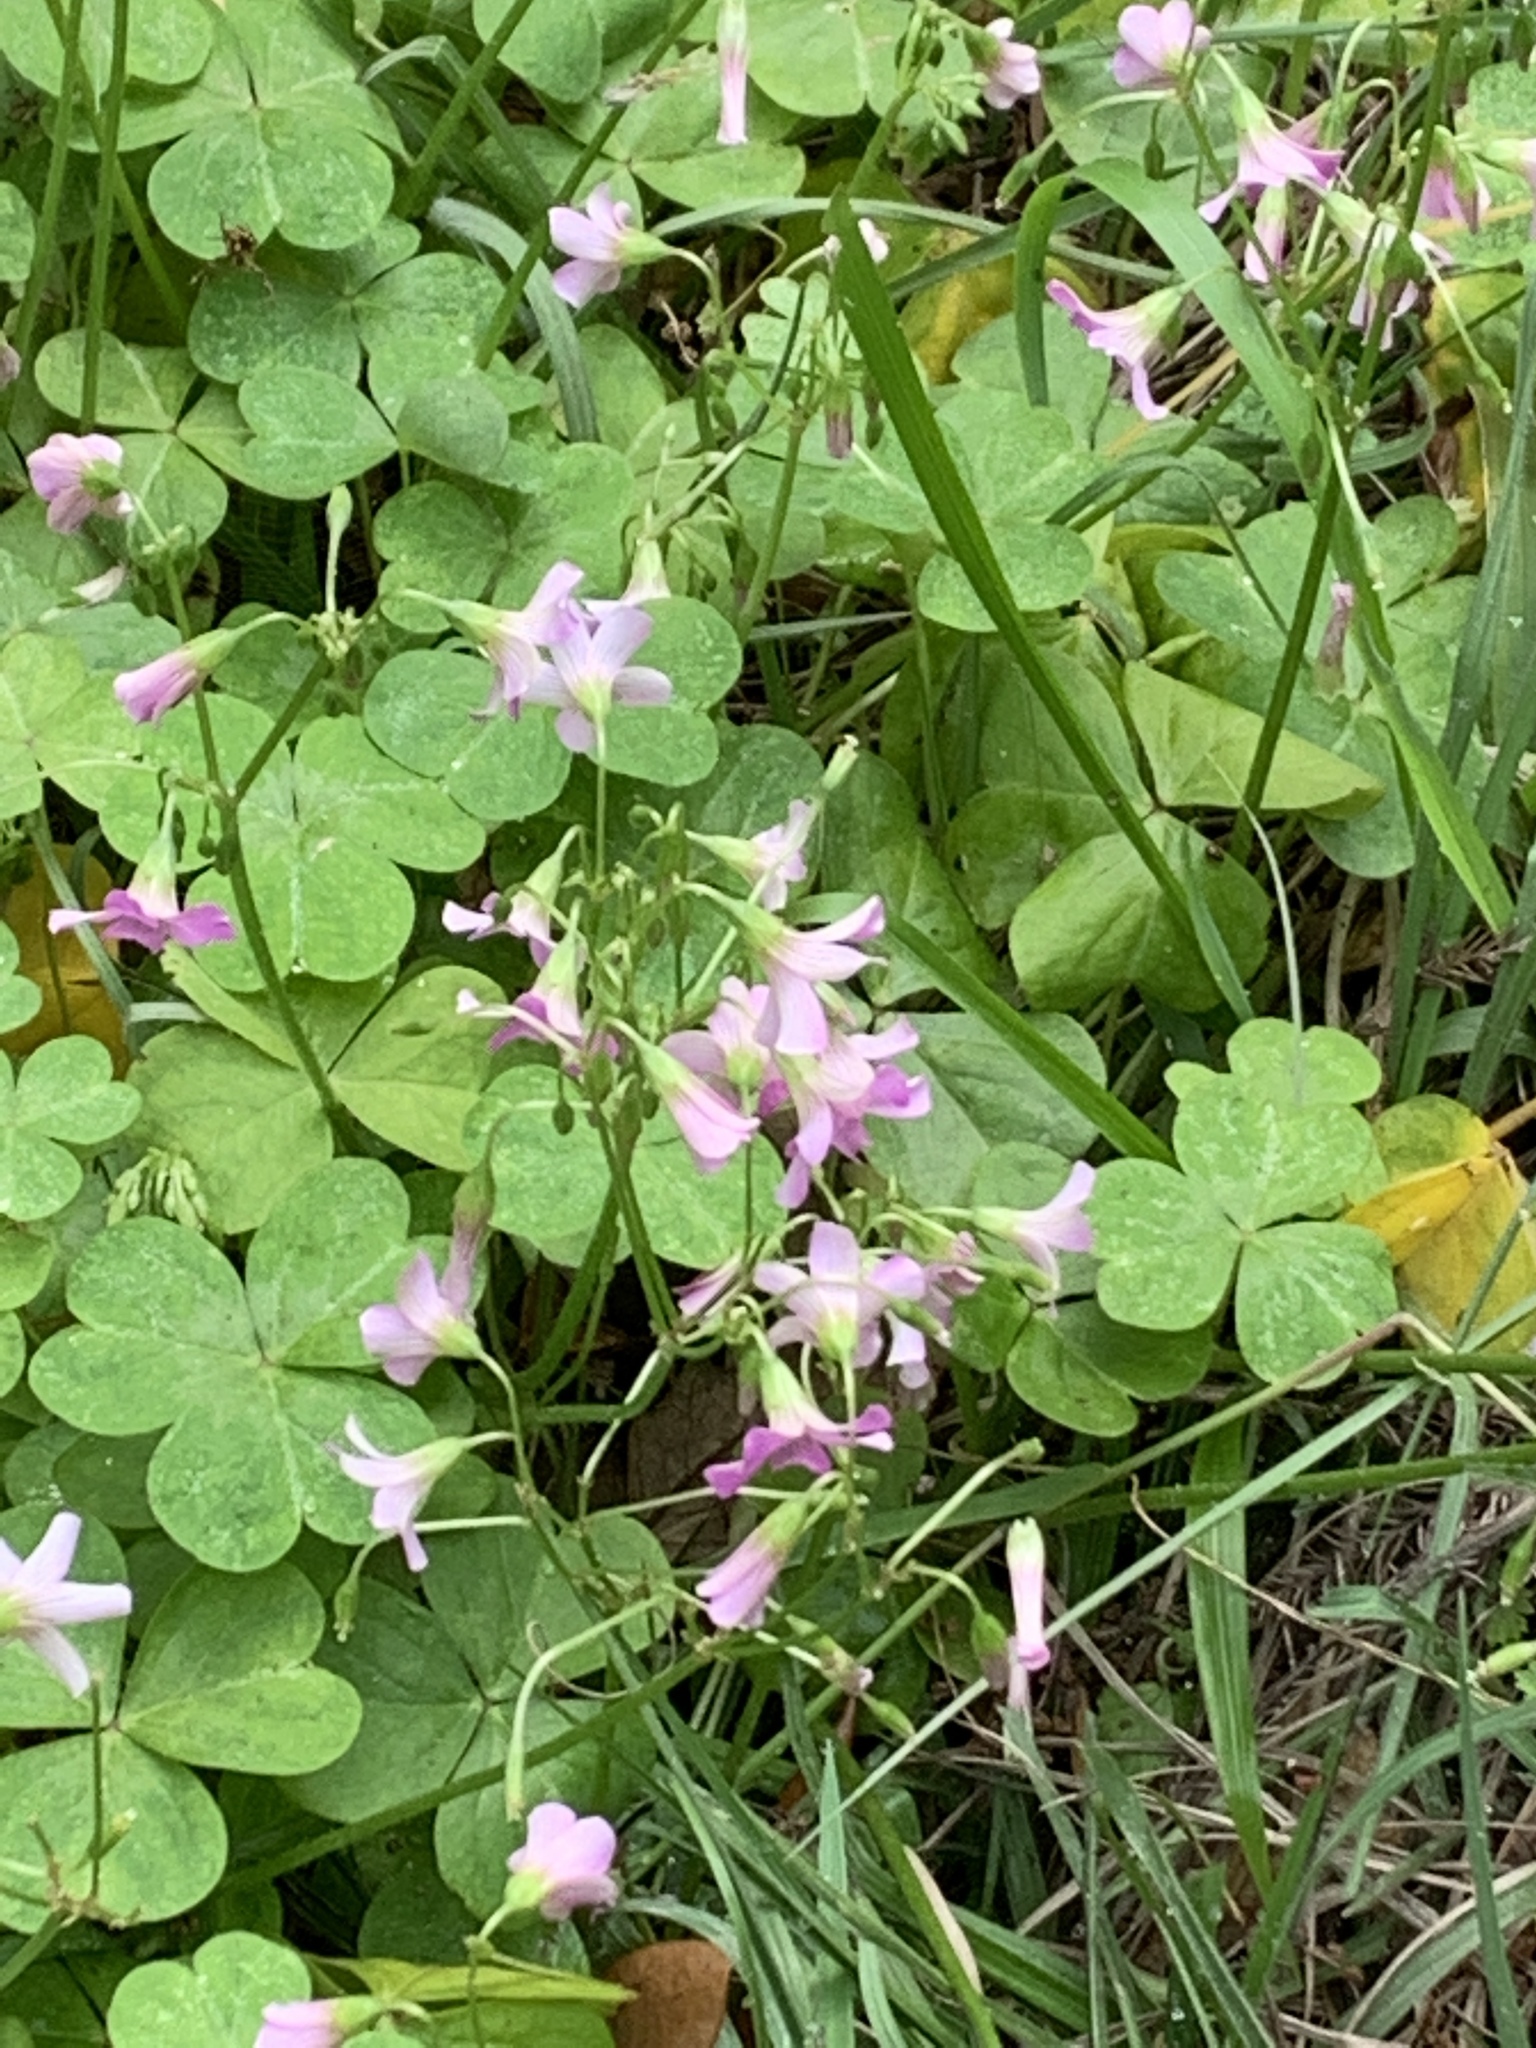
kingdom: Plantae
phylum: Tracheophyta
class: Magnoliopsida
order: Oxalidales
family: Oxalidaceae
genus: Oxalis
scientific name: Oxalis debilis
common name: Large-flowered pink-sorrel
